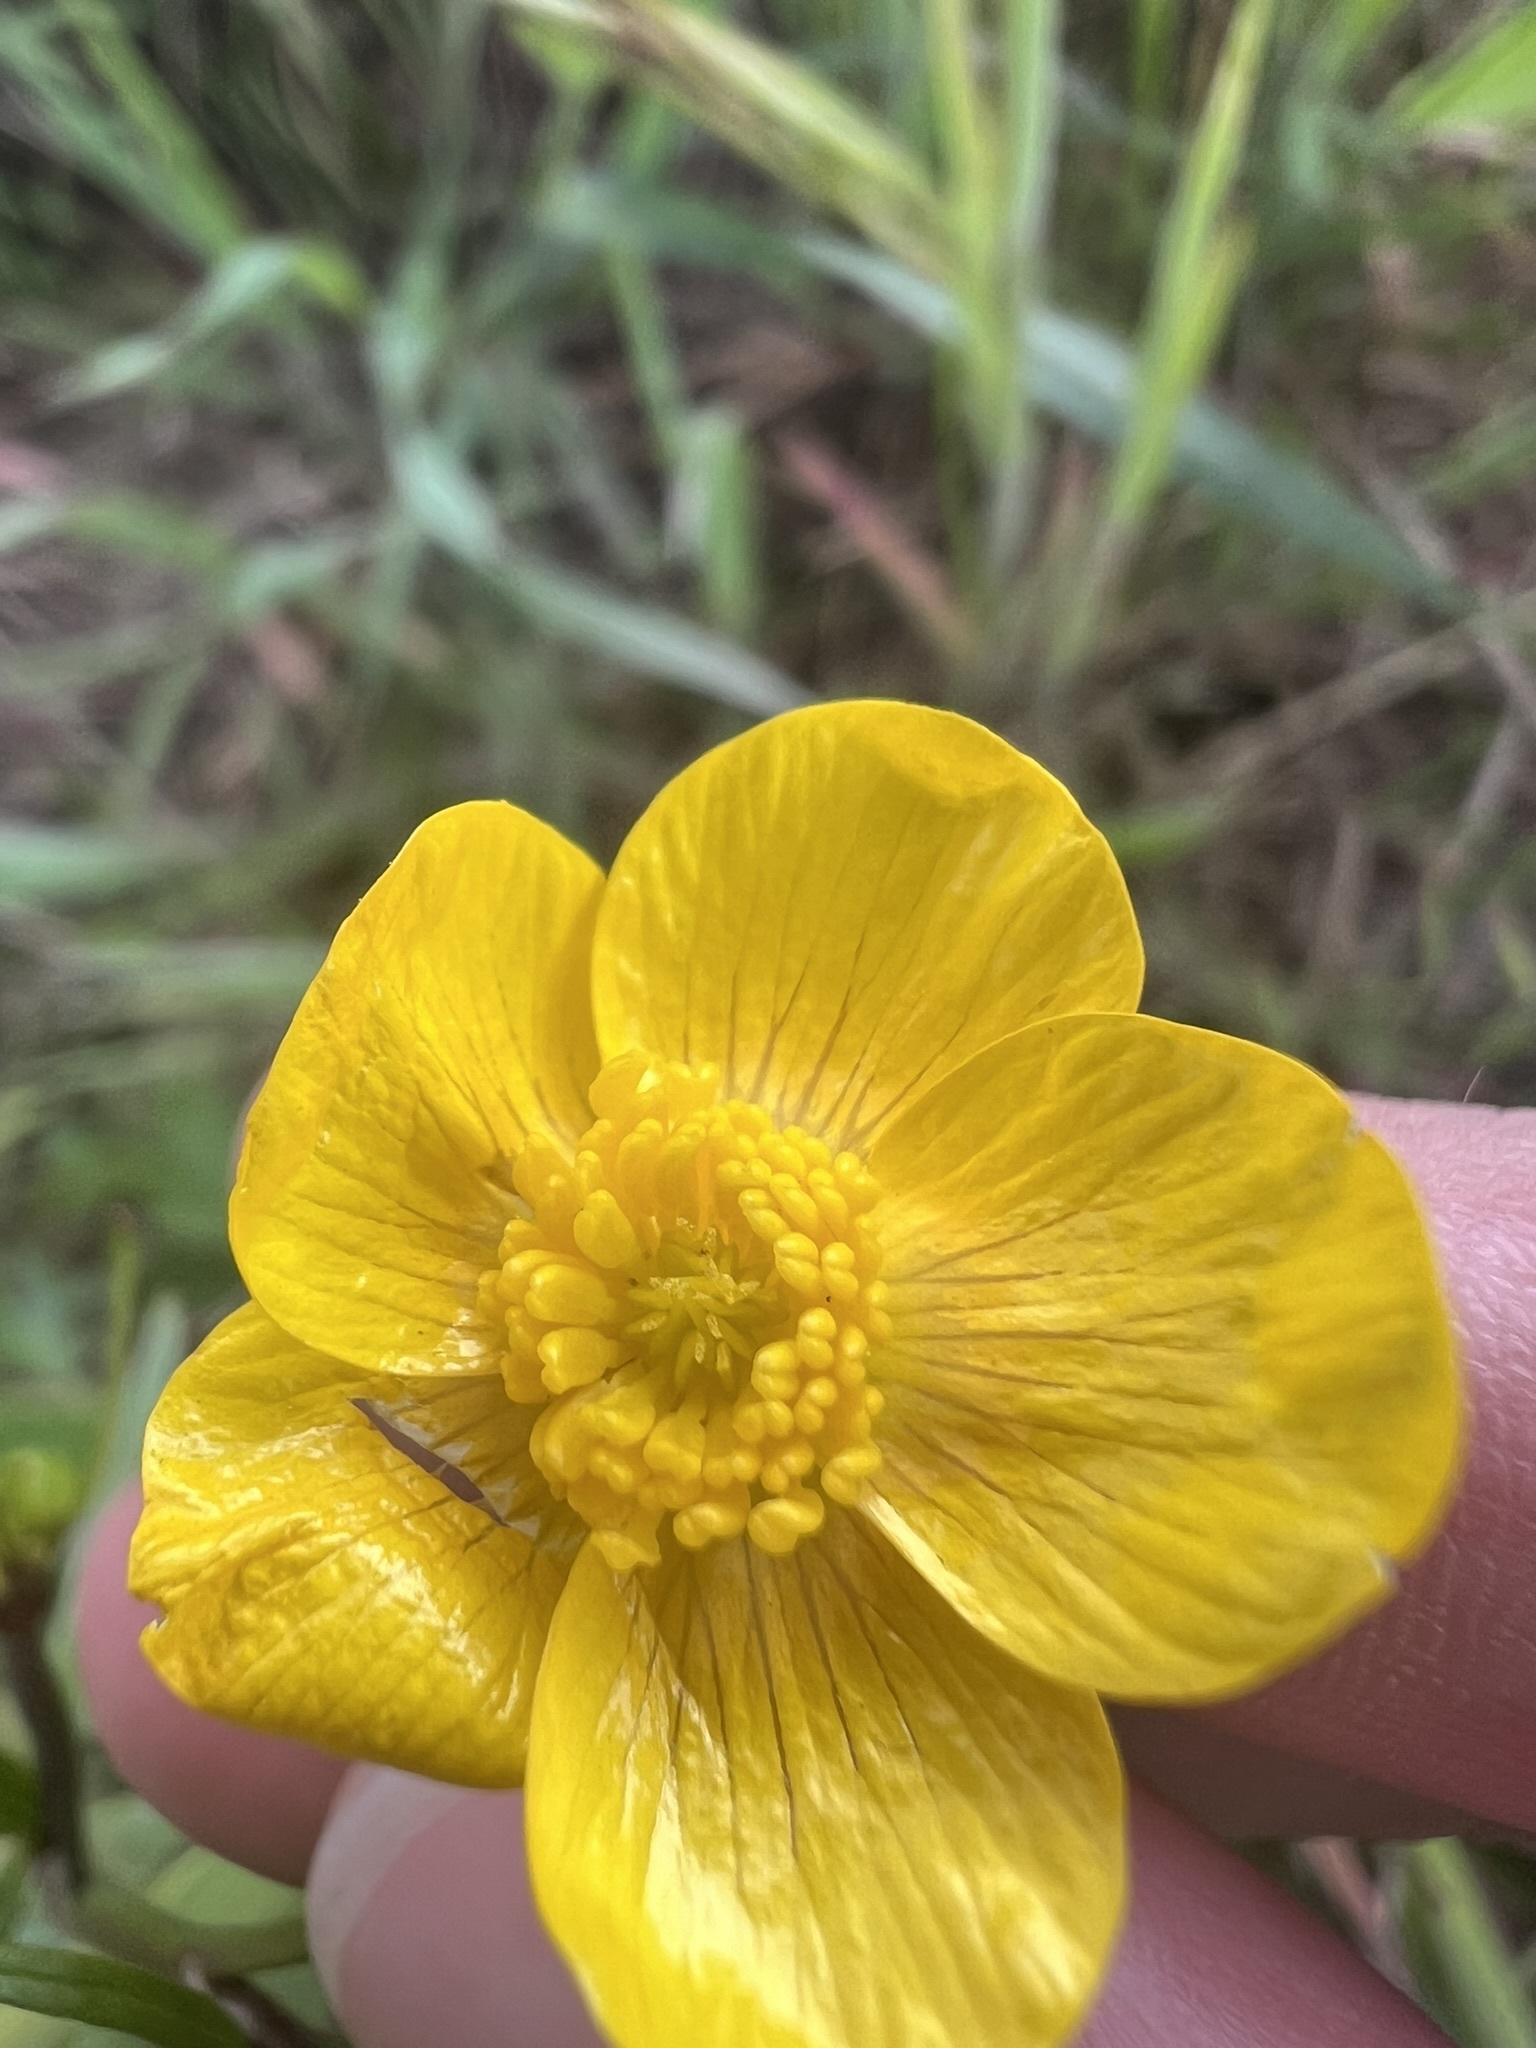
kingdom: Plantae
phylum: Tracheophyta
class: Magnoliopsida
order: Ranunculales
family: Ranunculaceae
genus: Ranunculus
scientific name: Ranunculus occidentalis
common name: Western buttercup
